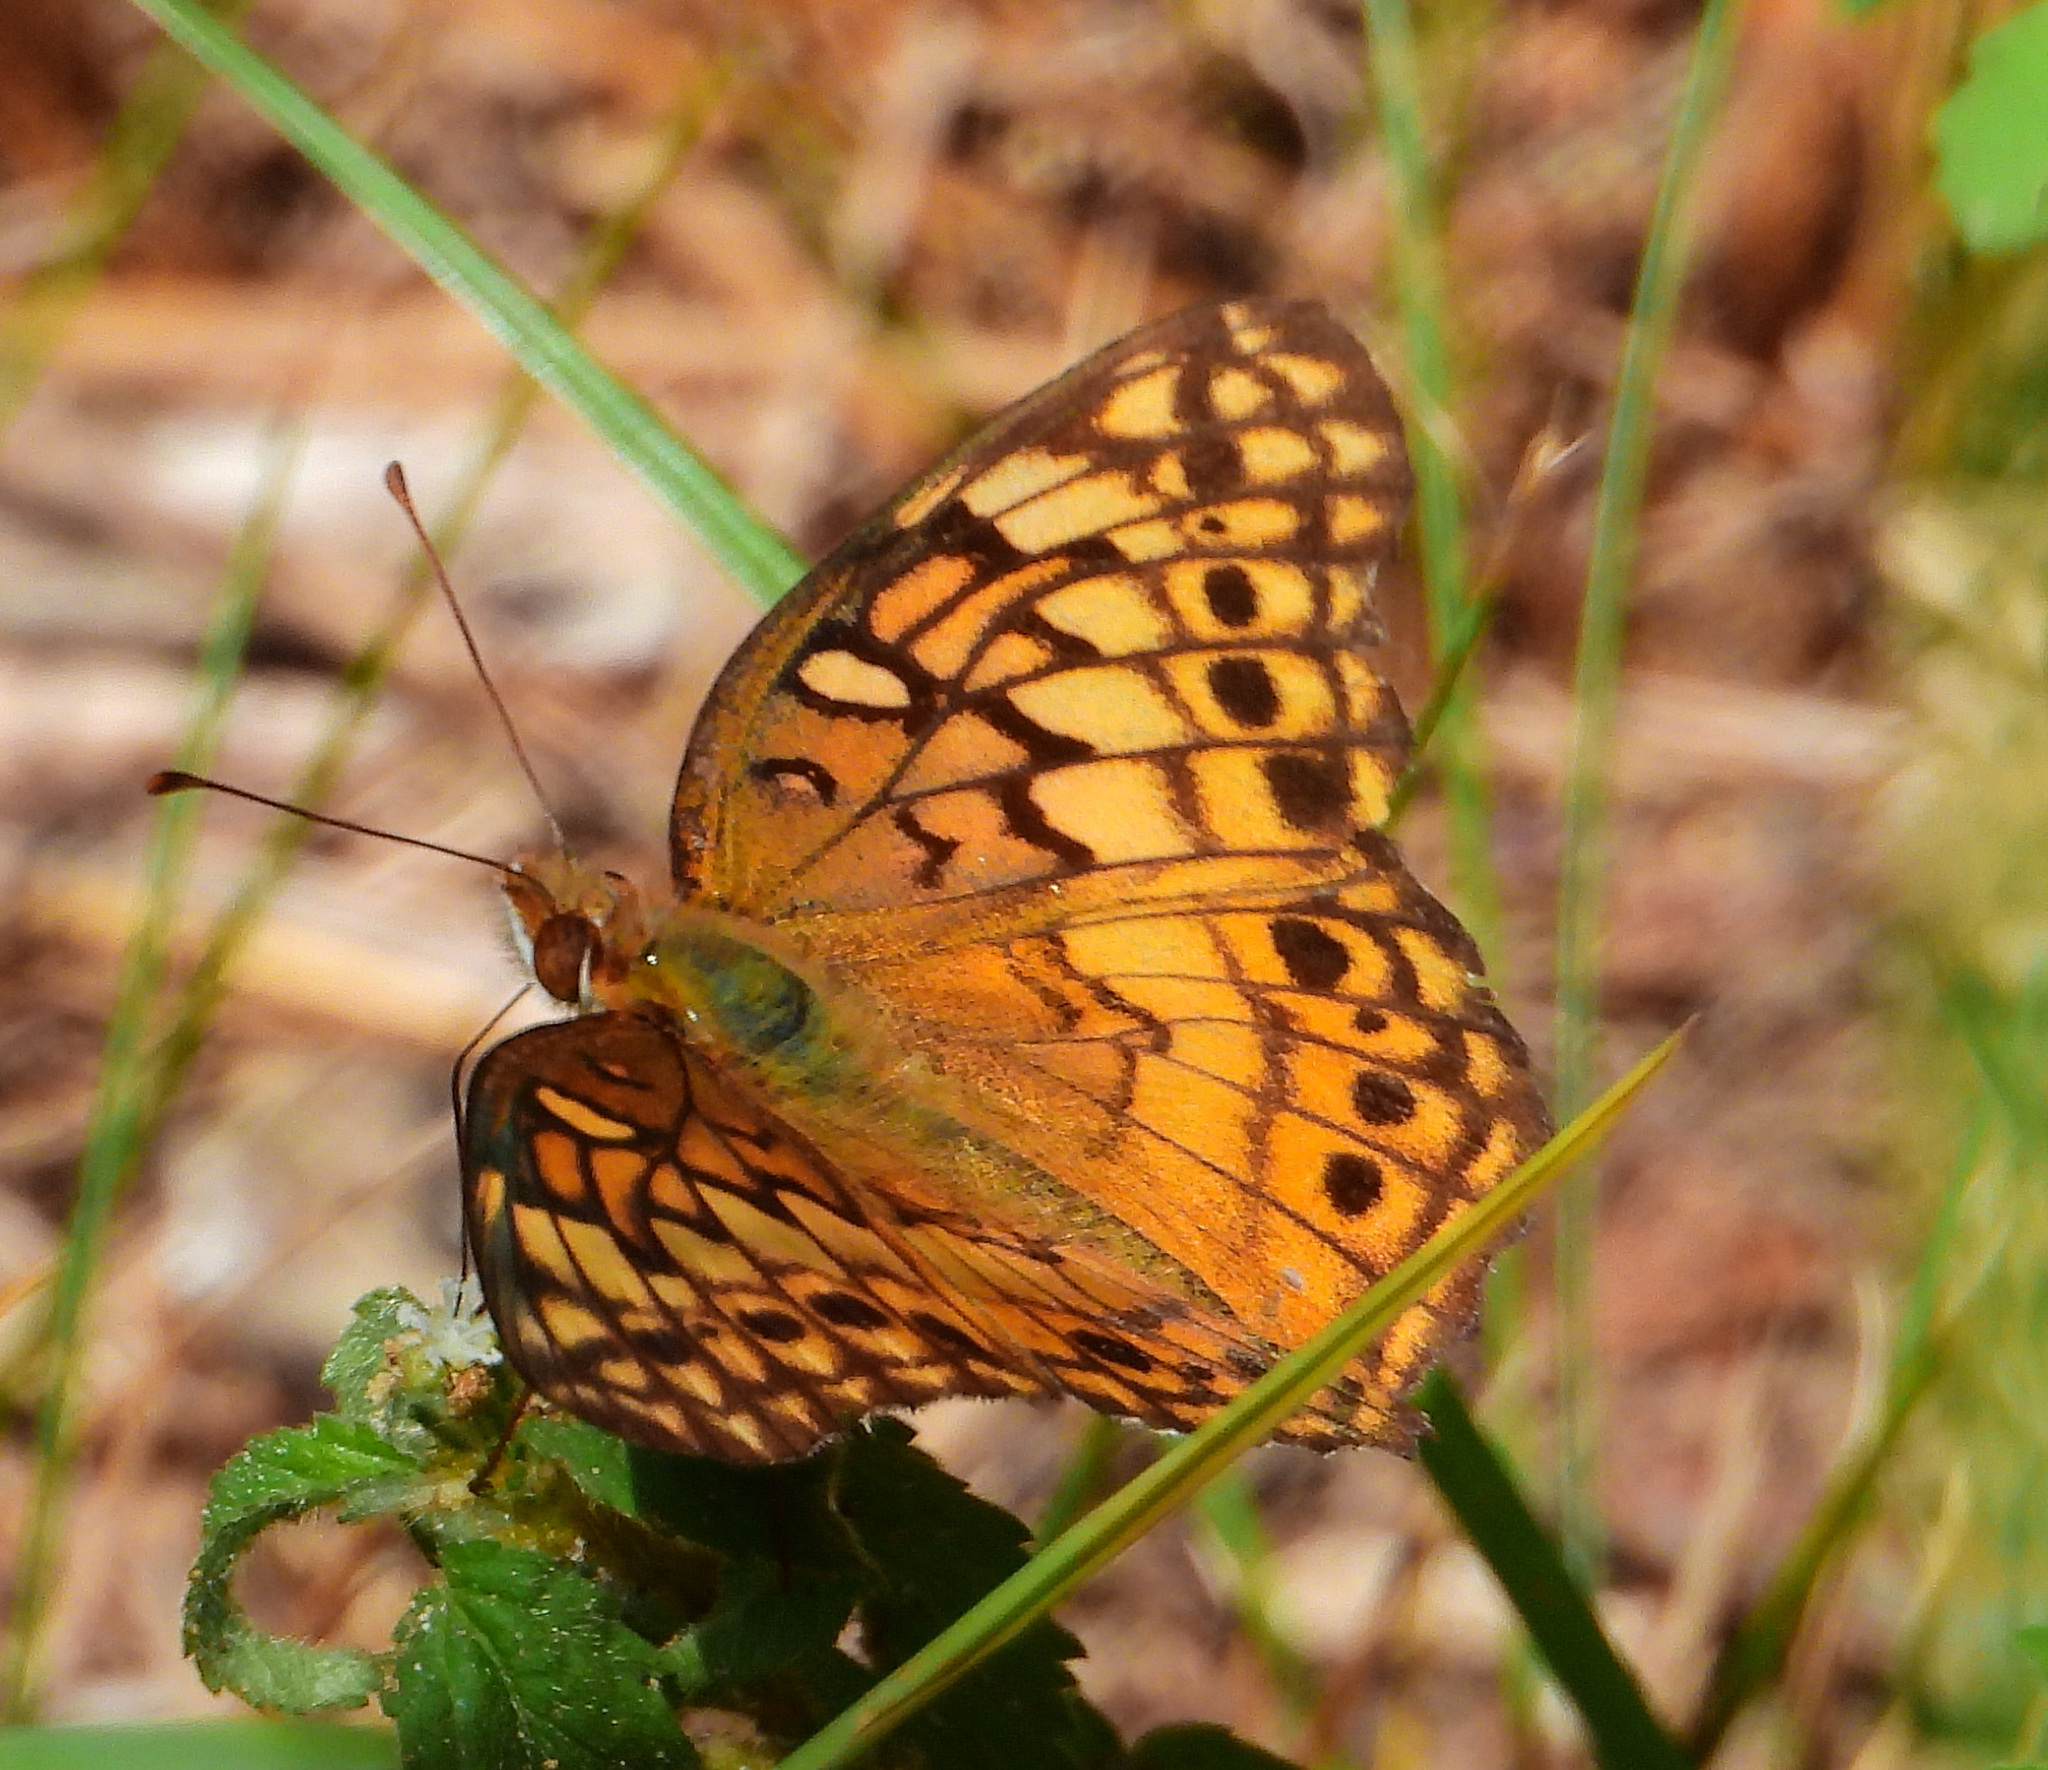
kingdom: Animalia
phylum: Arthropoda
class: Insecta
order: Lepidoptera
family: Nymphalidae
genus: Euptoieta
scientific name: Euptoieta claudia
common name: Variegated fritillary
